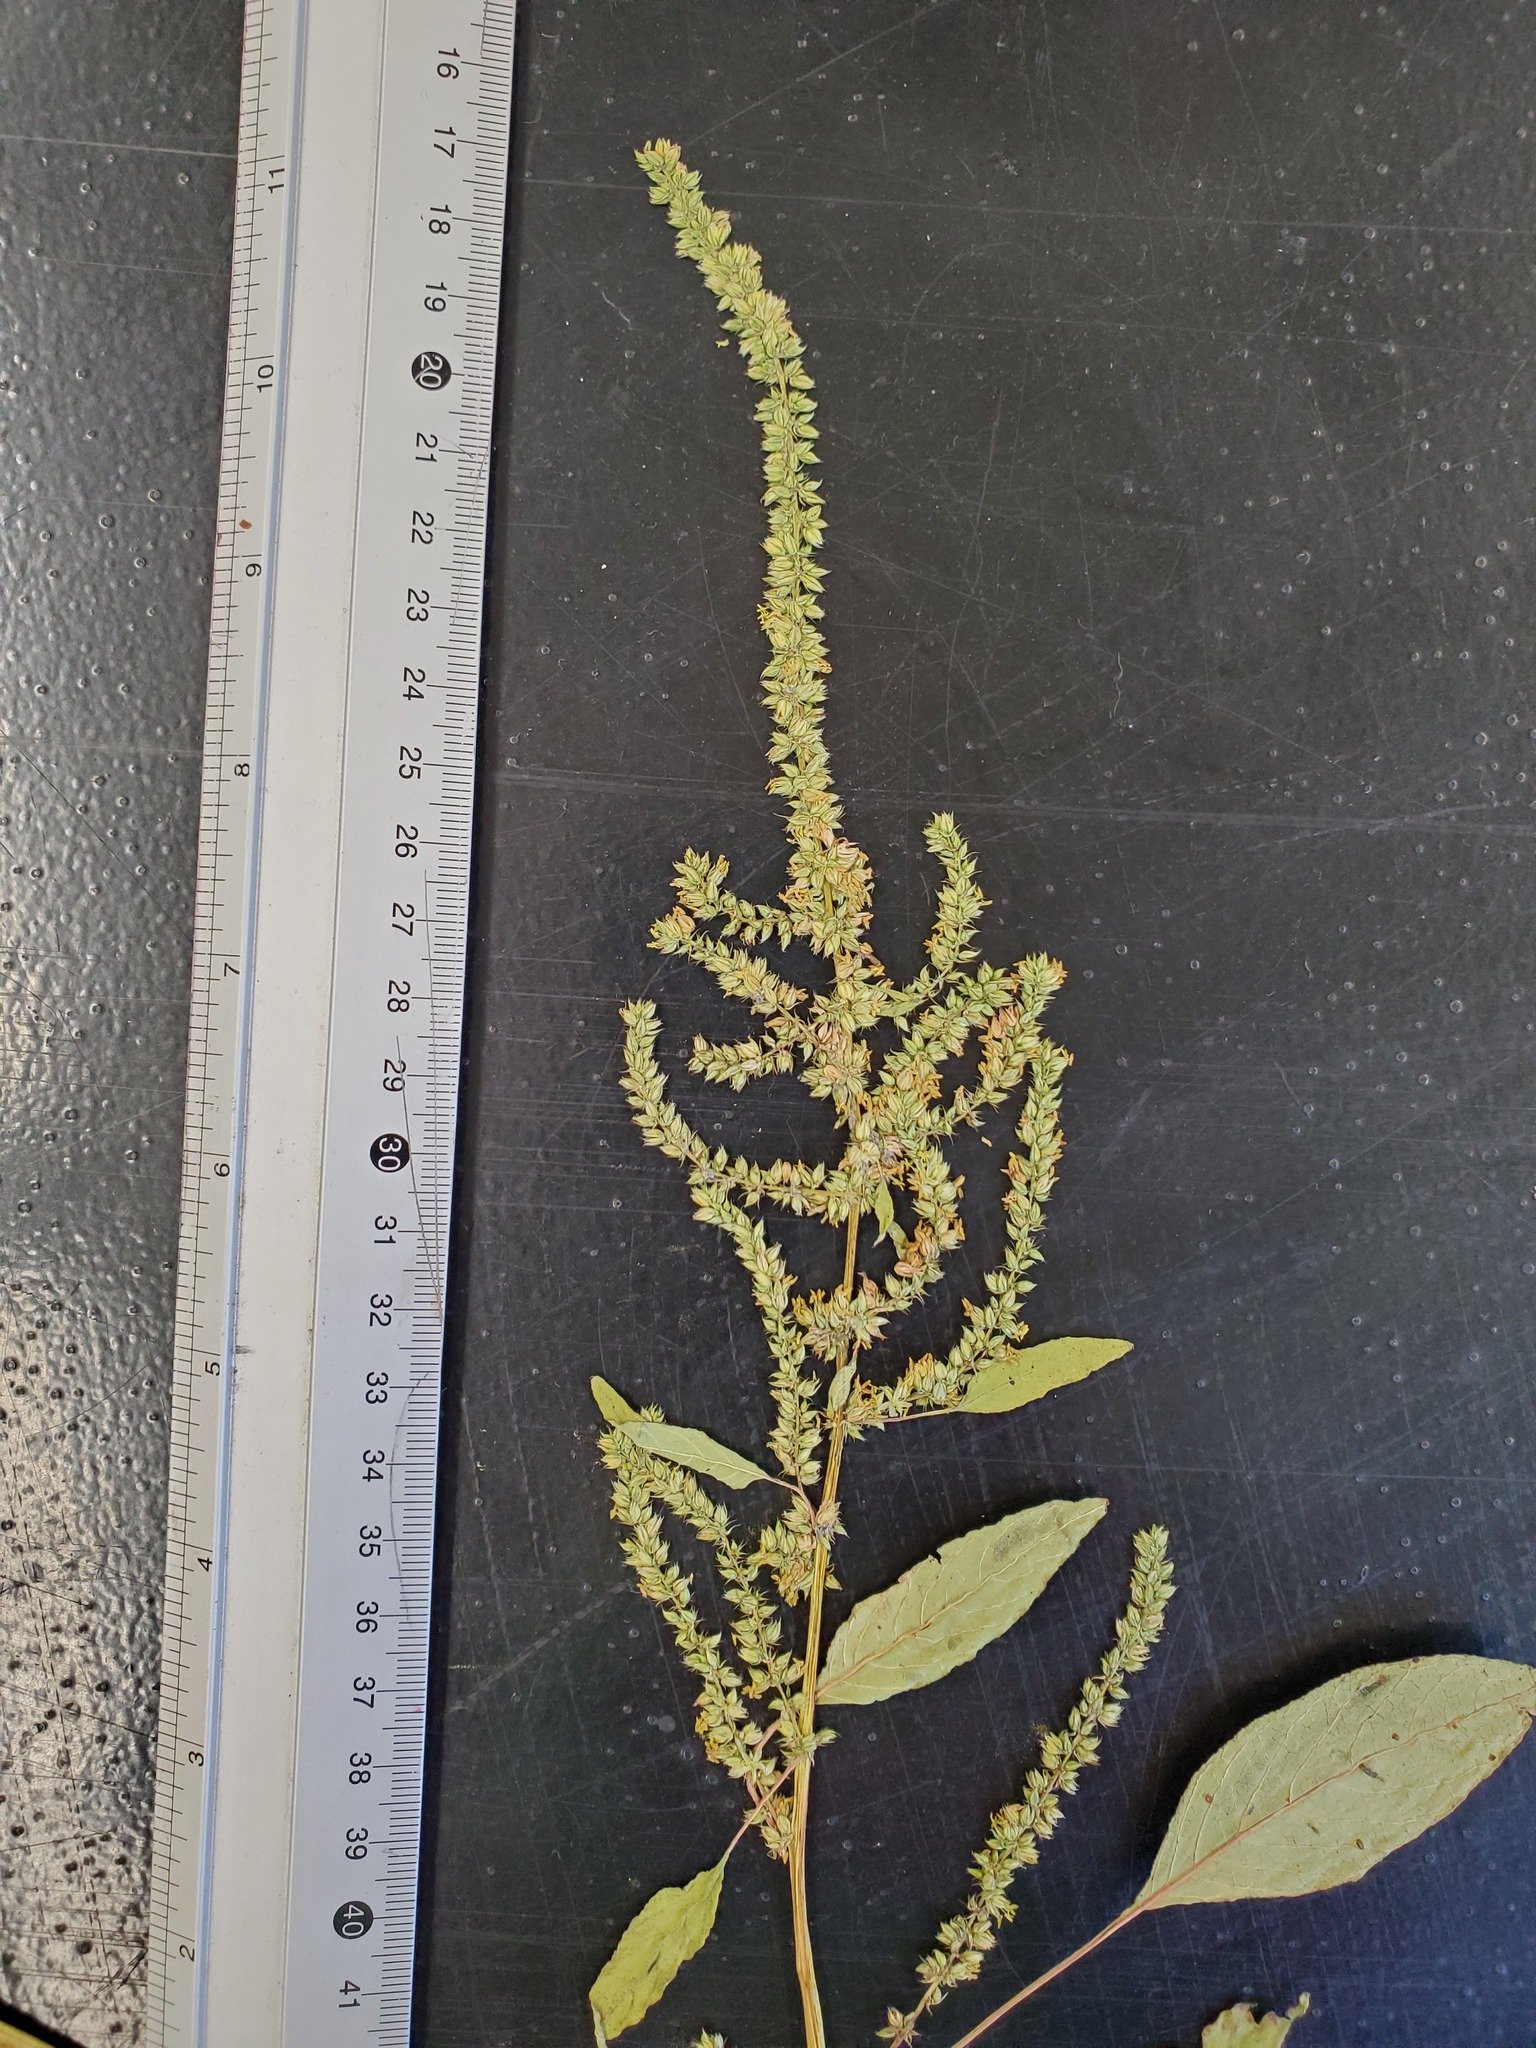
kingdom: Plantae
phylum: Tracheophyta
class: Magnoliopsida
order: Caryophyllales
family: Amaranthaceae
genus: Amaranthus
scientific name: Amaranthus tuberculatus
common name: Rough-fruit amaranth
